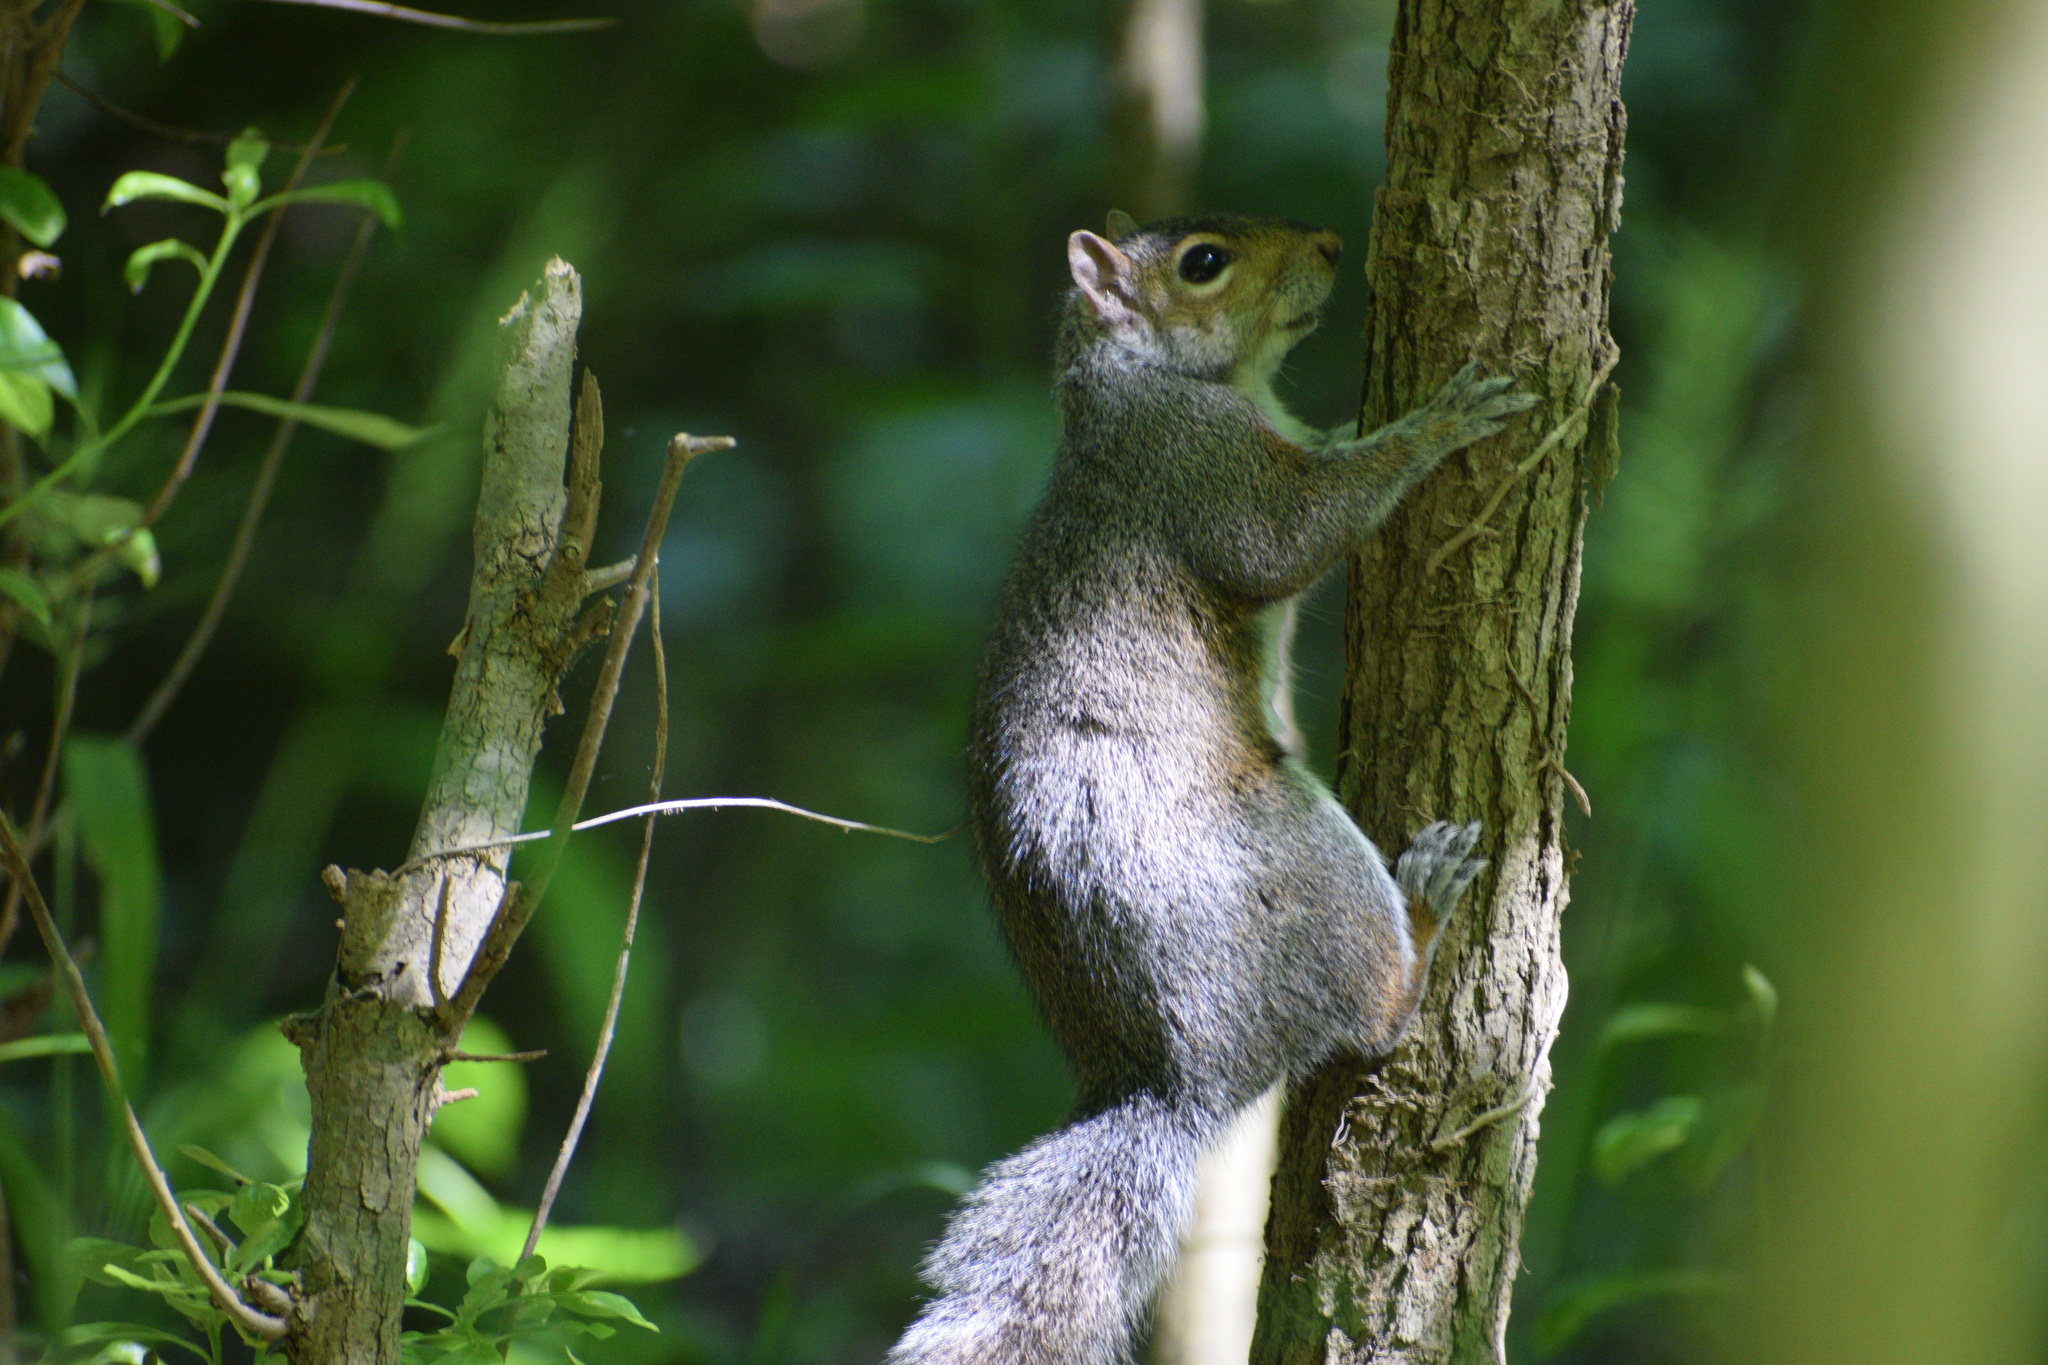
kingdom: Animalia
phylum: Chordata
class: Mammalia
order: Rodentia
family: Sciuridae
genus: Sciurus
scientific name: Sciurus carolinensis
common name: Eastern gray squirrel
